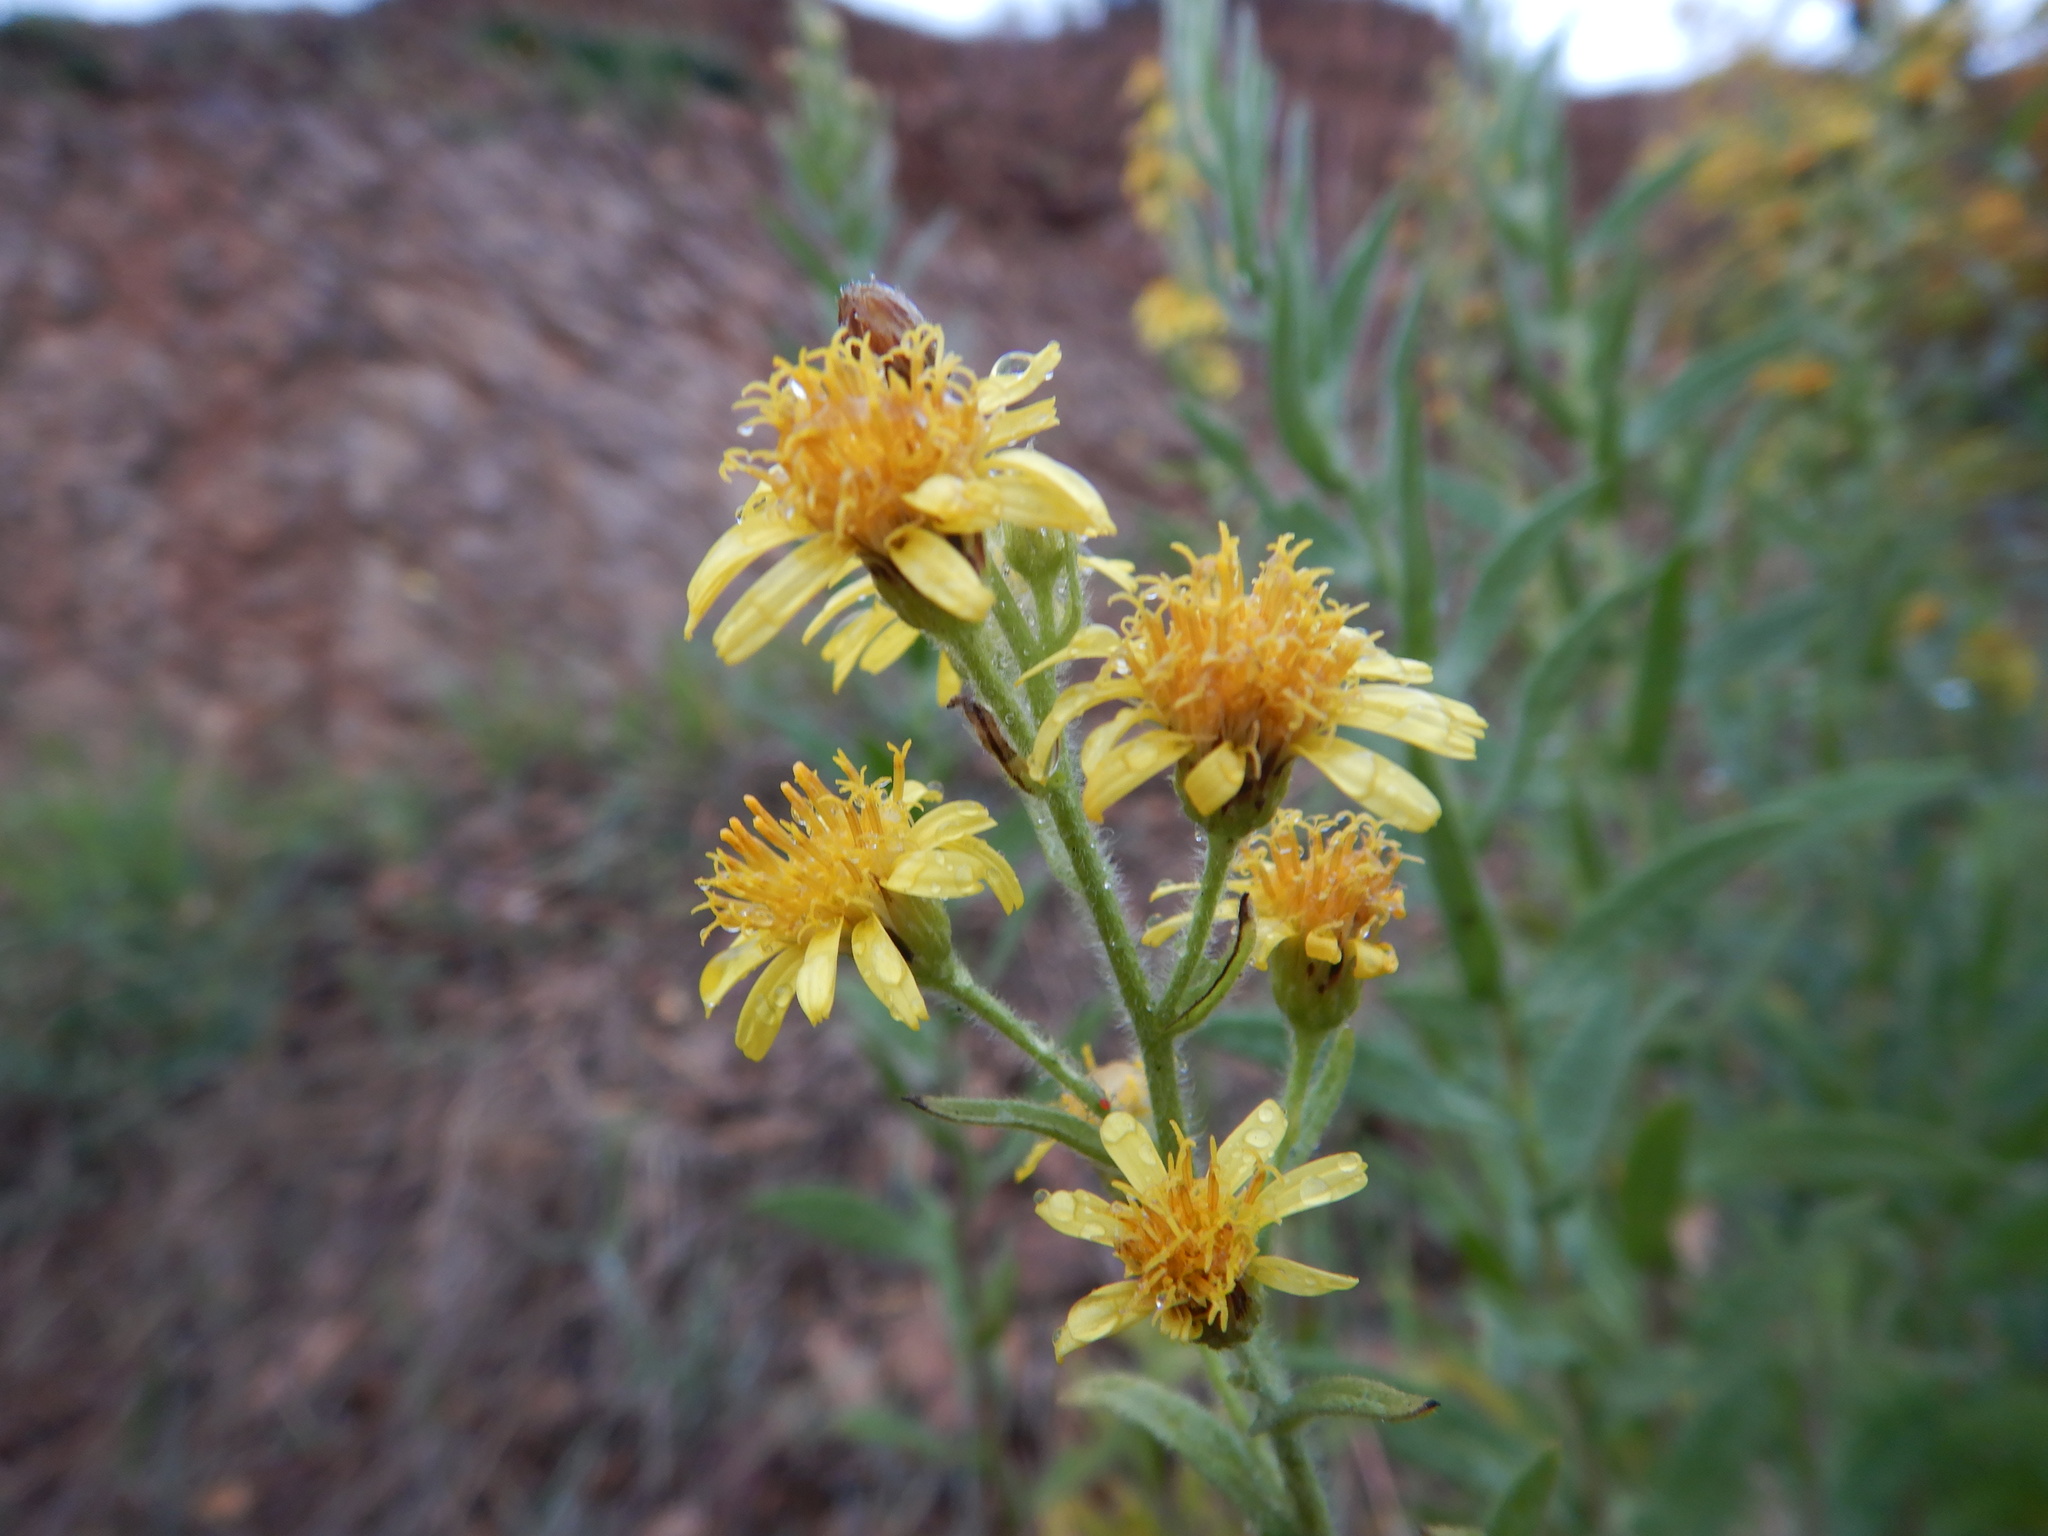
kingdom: Plantae
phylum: Tracheophyta
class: Magnoliopsida
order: Asterales
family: Asteraceae
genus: Dittrichia
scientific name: Dittrichia viscosa
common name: Woody fleabane
